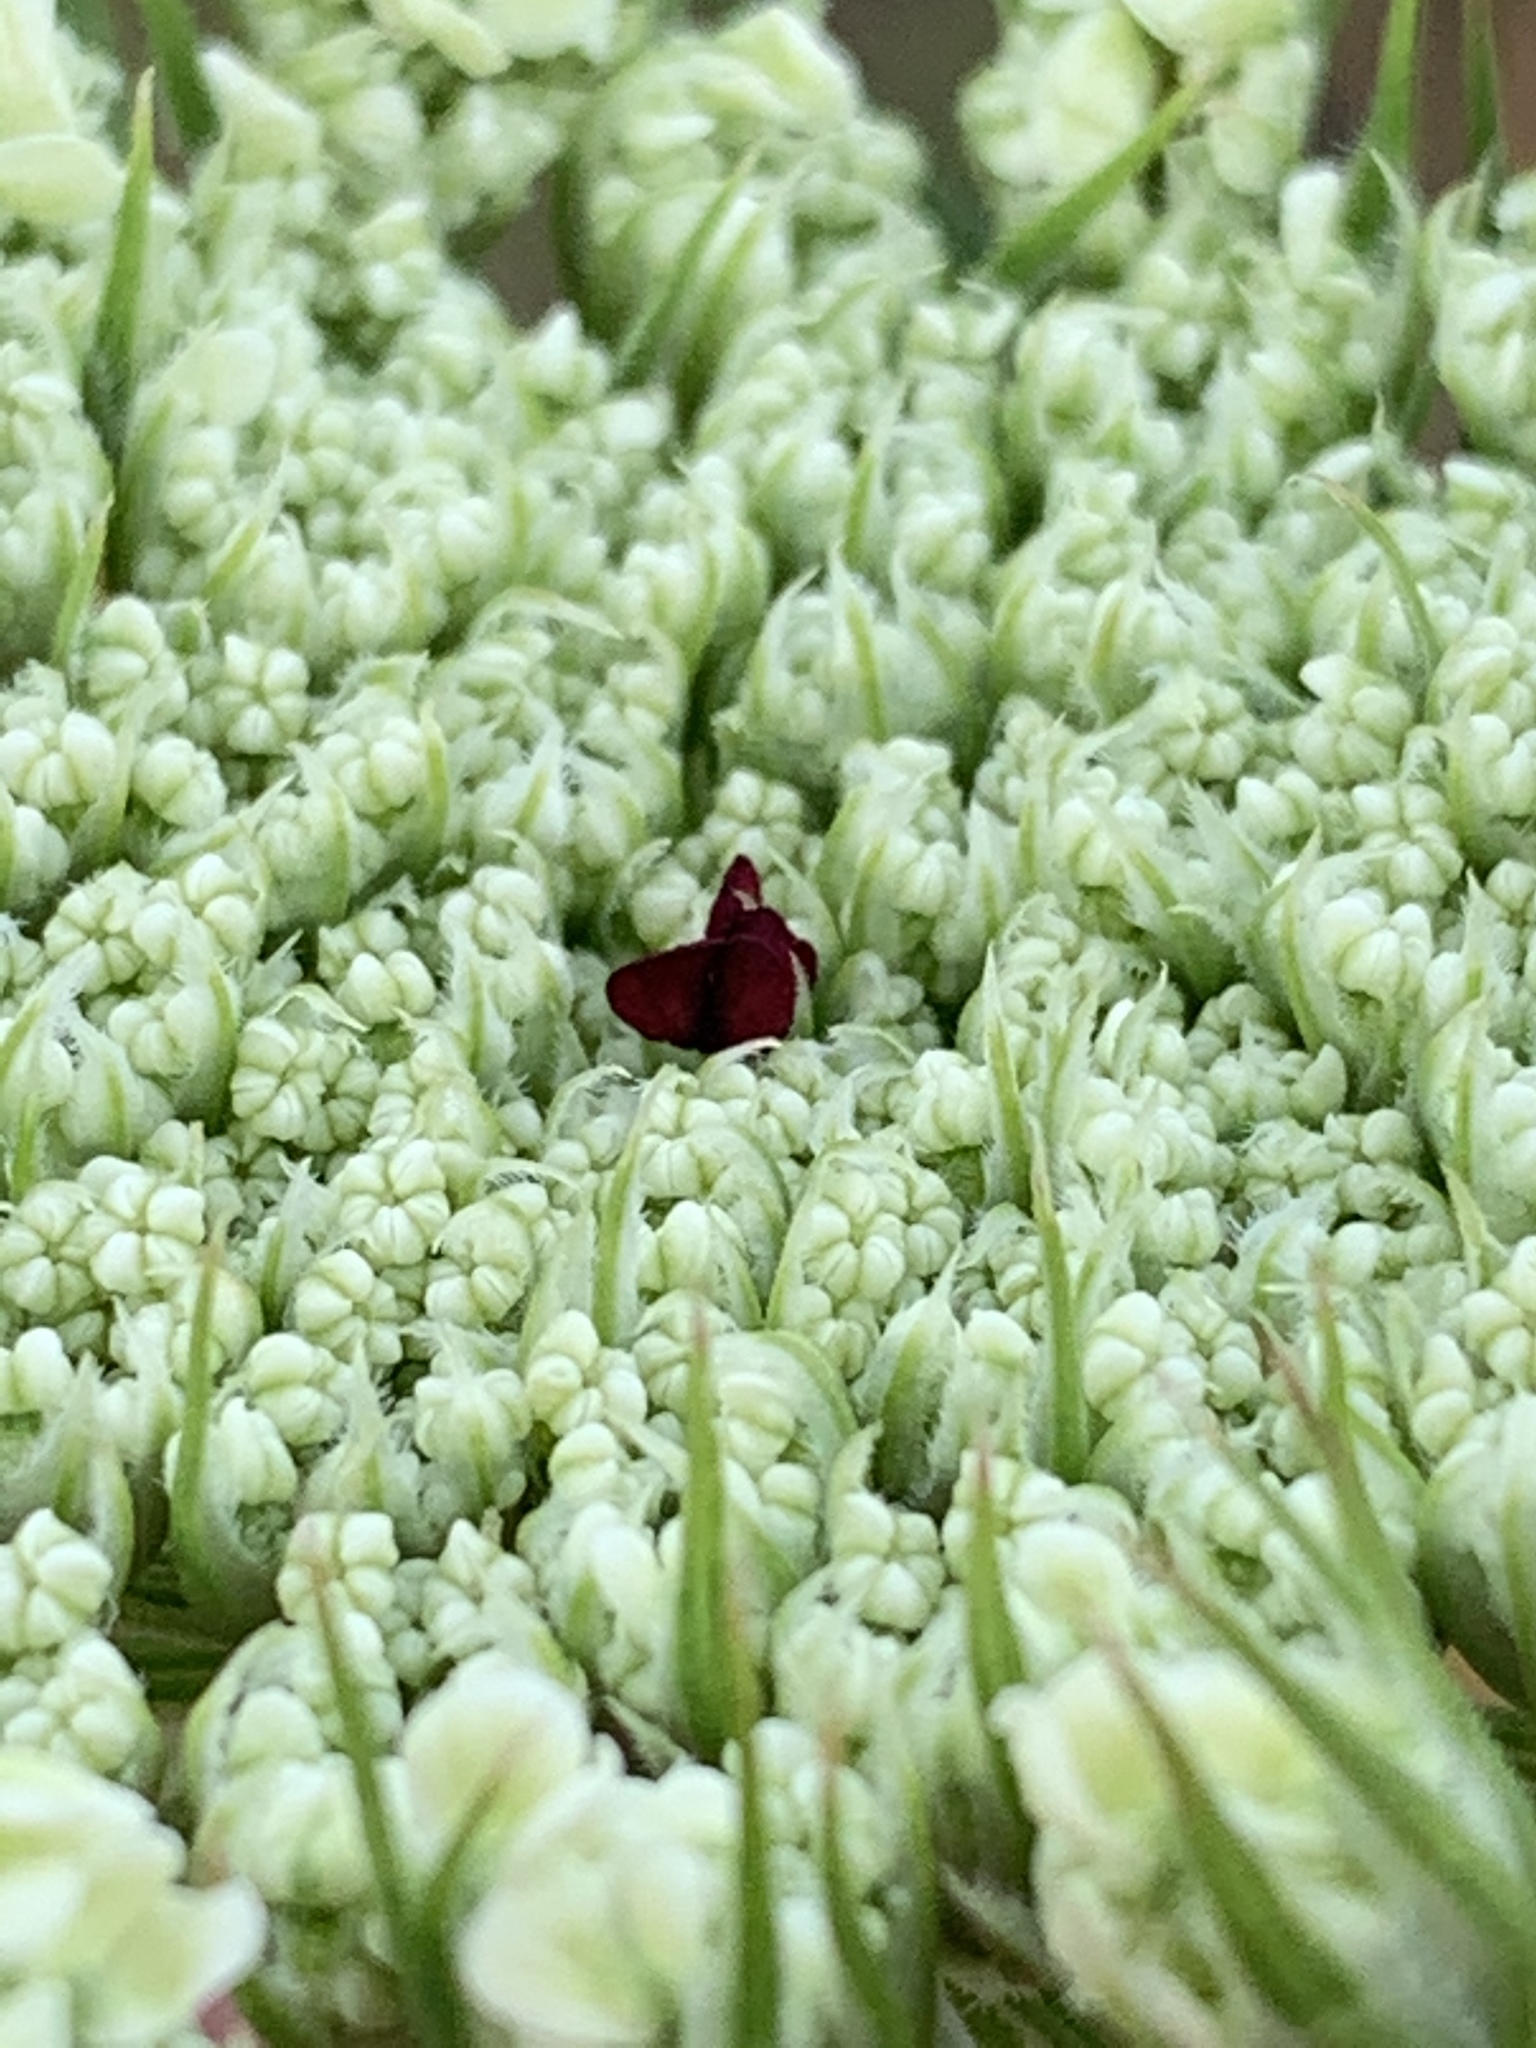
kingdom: Plantae
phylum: Tracheophyta
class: Magnoliopsida
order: Apiales
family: Apiaceae
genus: Daucus
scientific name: Daucus carota
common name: Wild carrot
